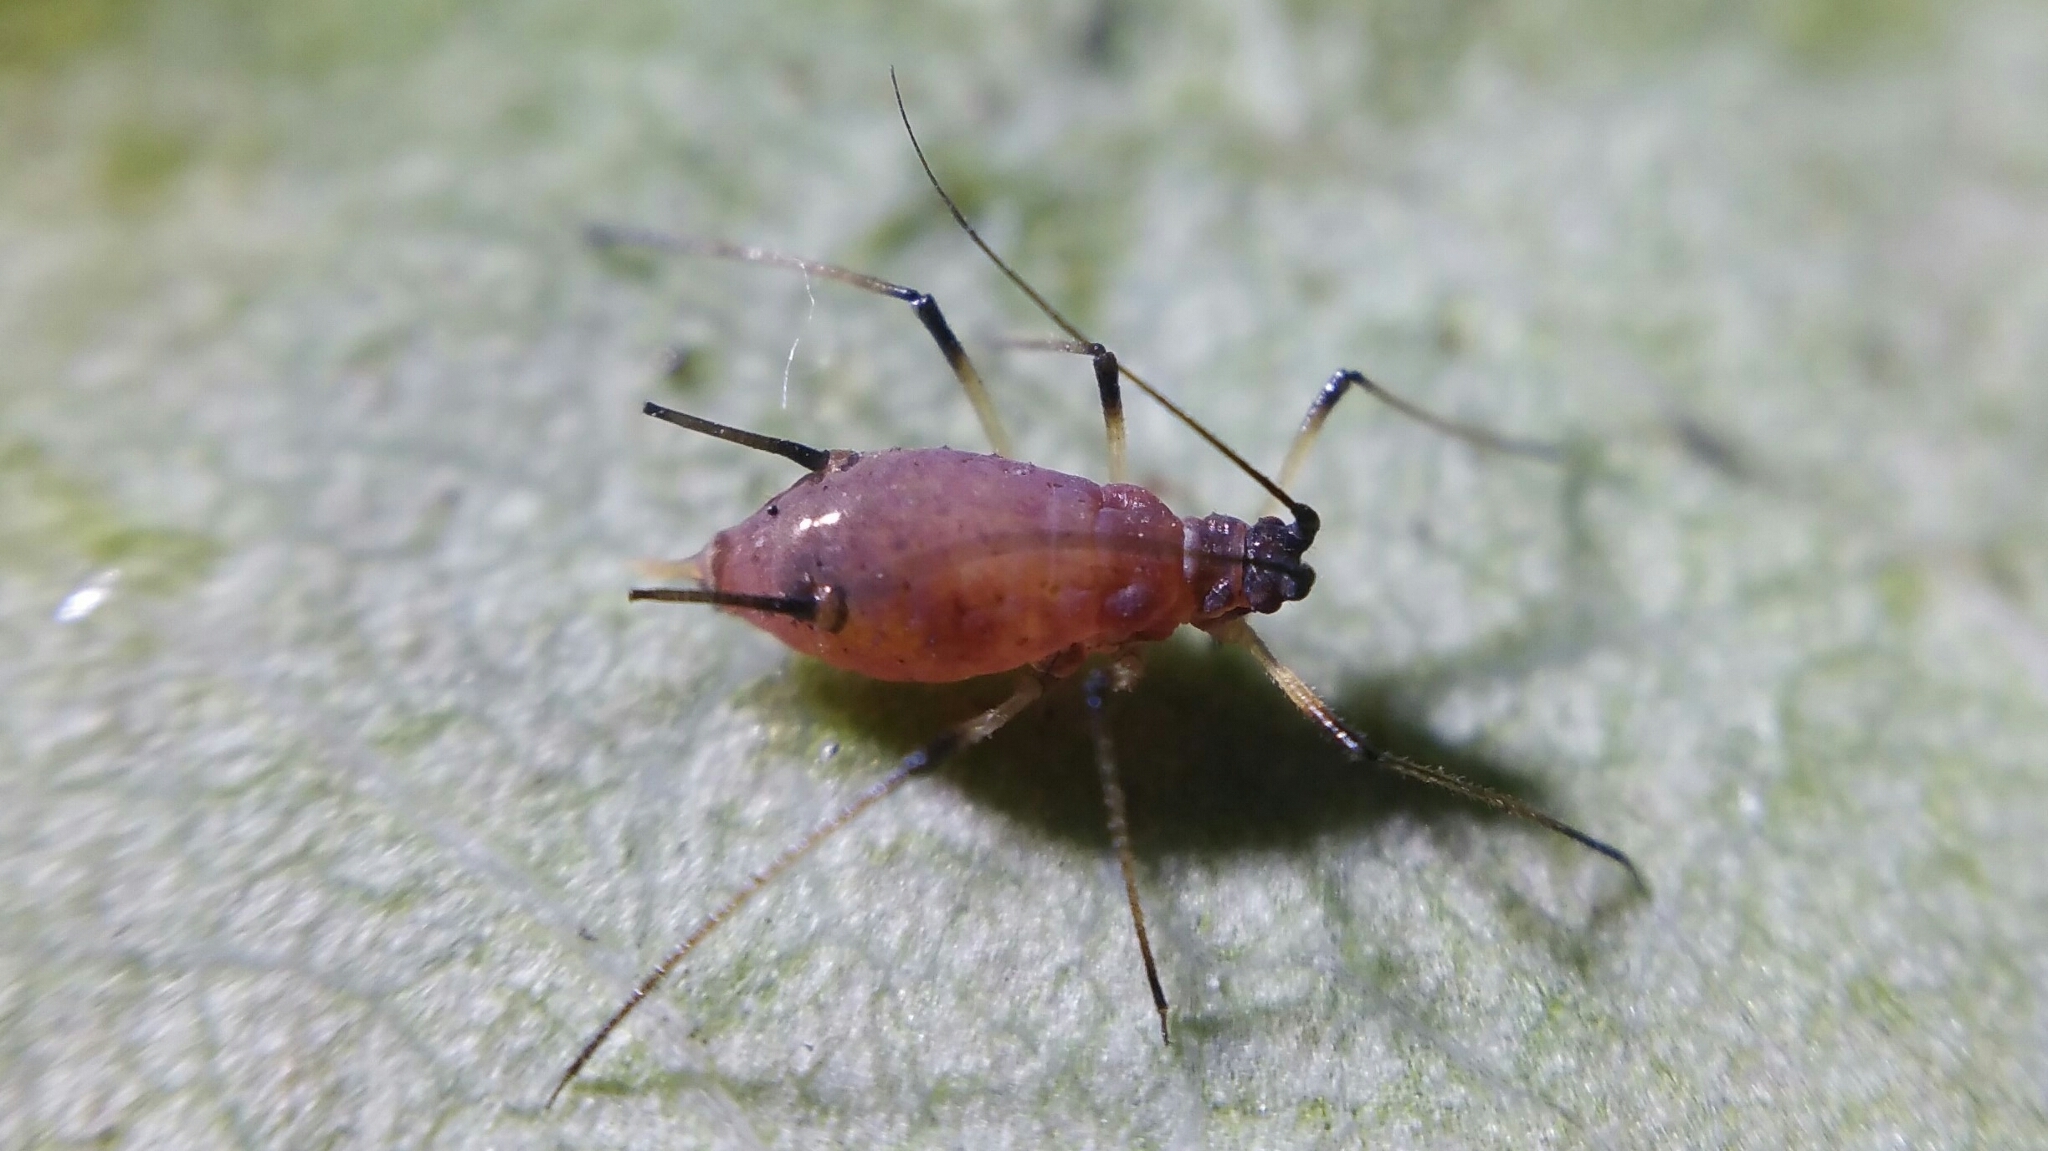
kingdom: Animalia
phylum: Arthropoda
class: Insecta
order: Hemiptera
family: Aphididae
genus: Macrosiphum
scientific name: Macrosiphum rosae
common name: Rose aphid
